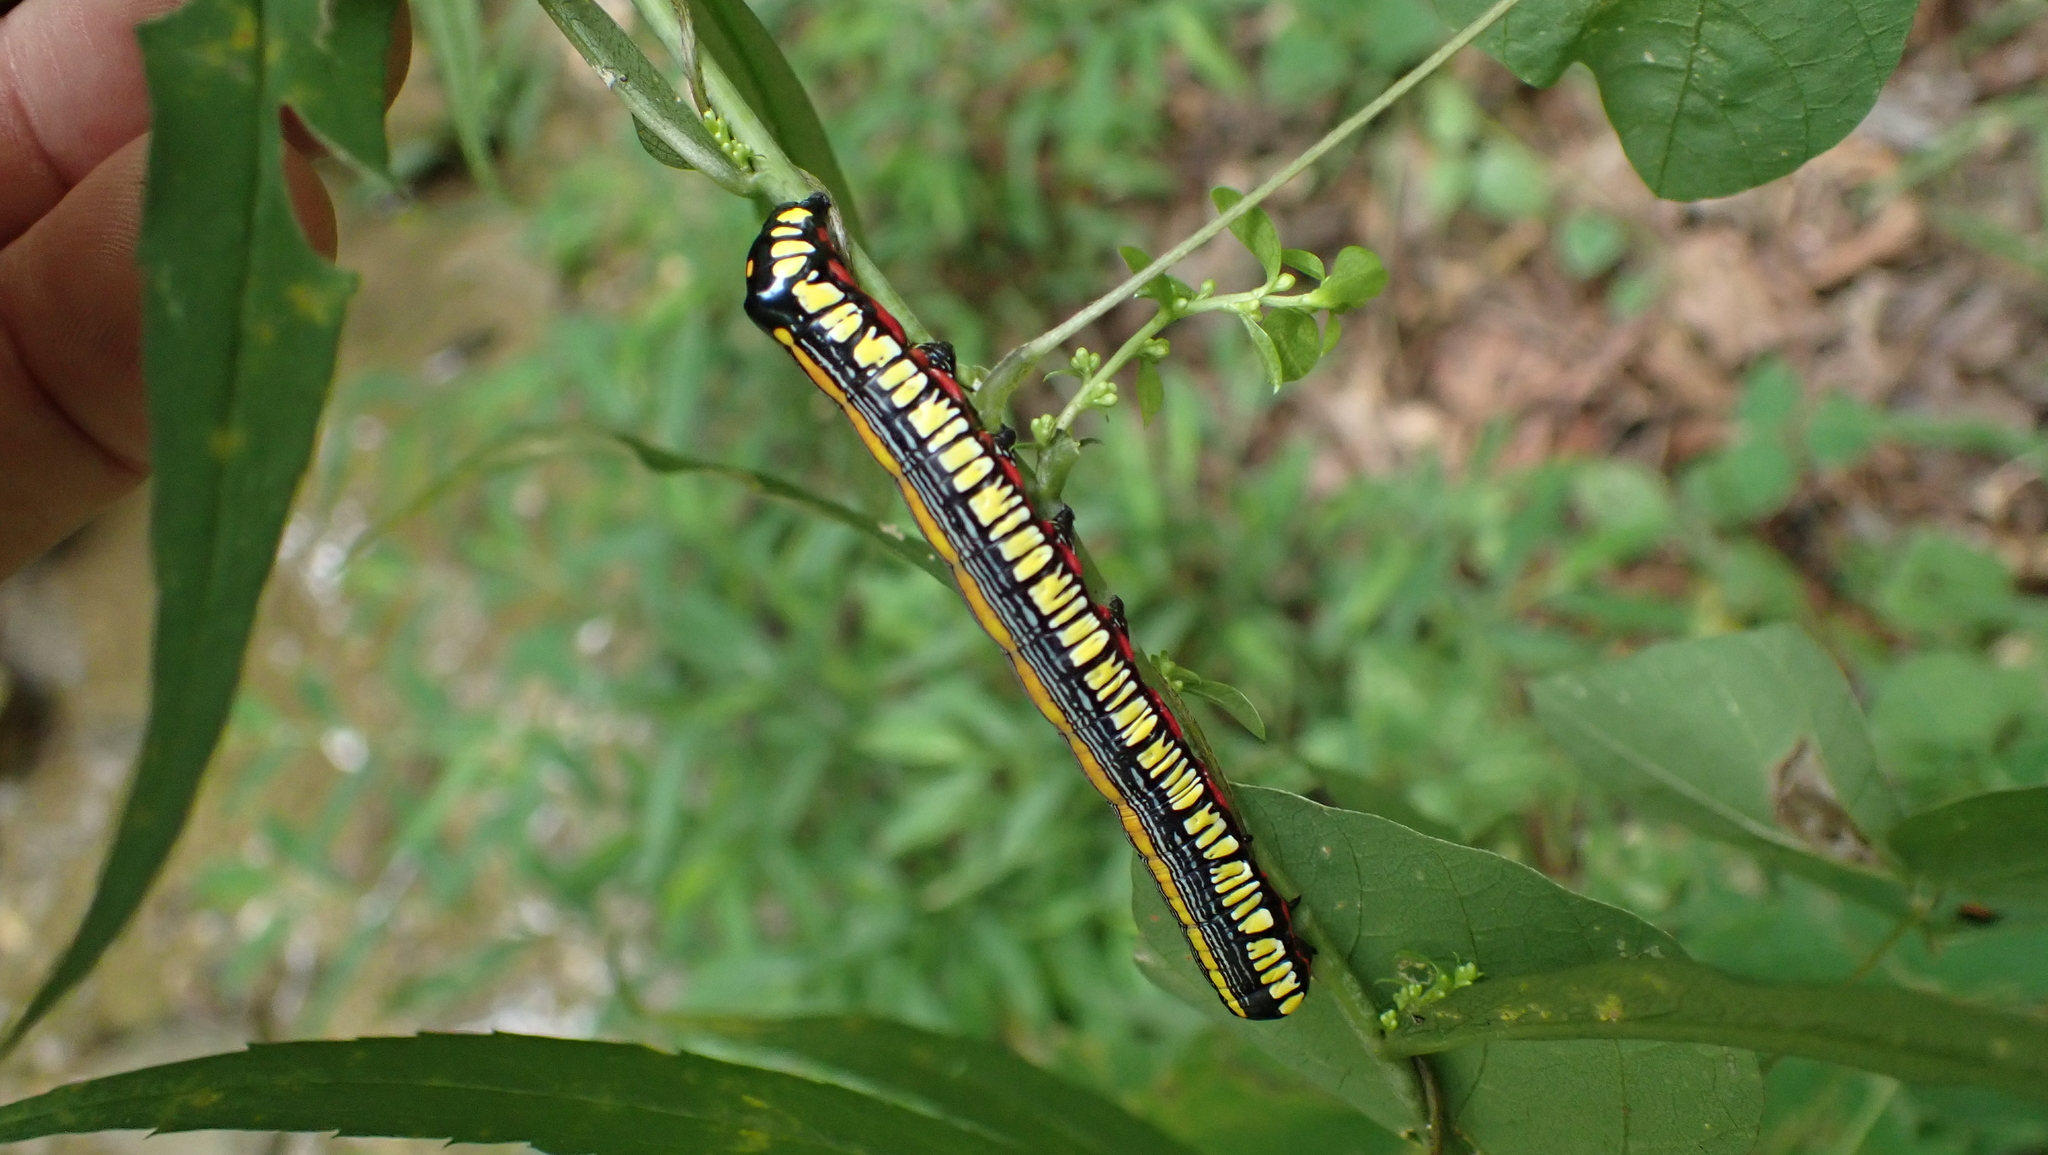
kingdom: Animalia
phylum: Arthropoda
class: Insecta
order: Lepidoptera
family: Noctuidae
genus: Cucullia
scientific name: Cucullia convexipennis
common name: Brown-hooded owlet
